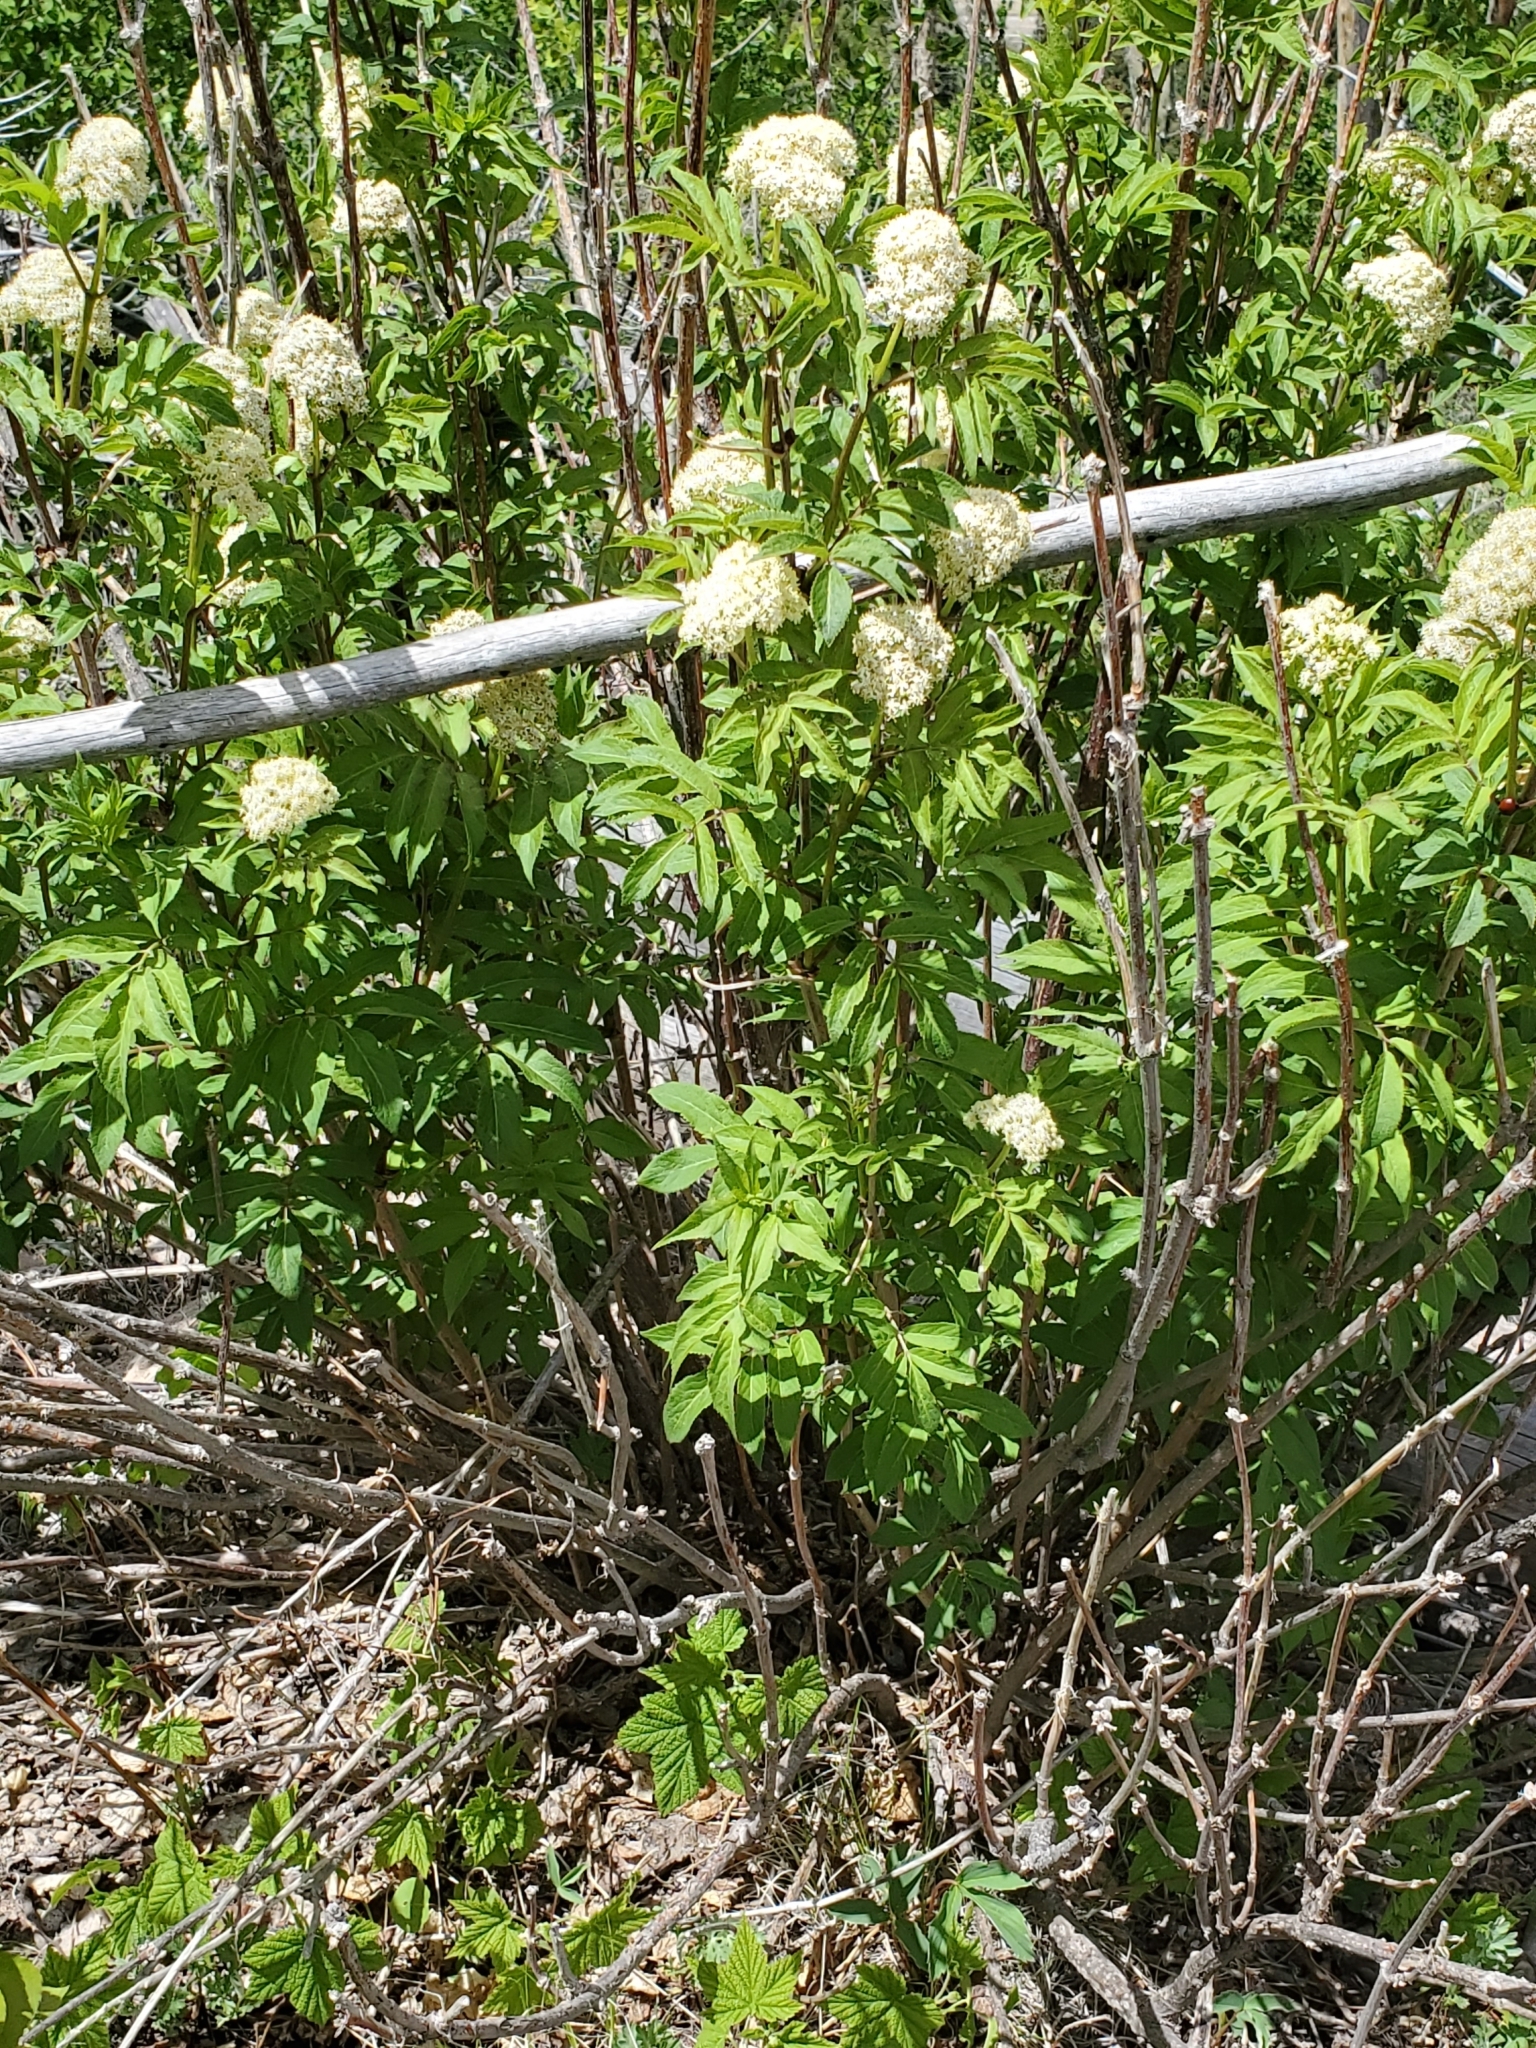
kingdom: Plantae
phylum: Tracheophyta
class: Magnoliopsida
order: Dipsacales
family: Viburnaceae
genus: Sambucus
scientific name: Sambucus racemosa
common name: Red-berried elder
